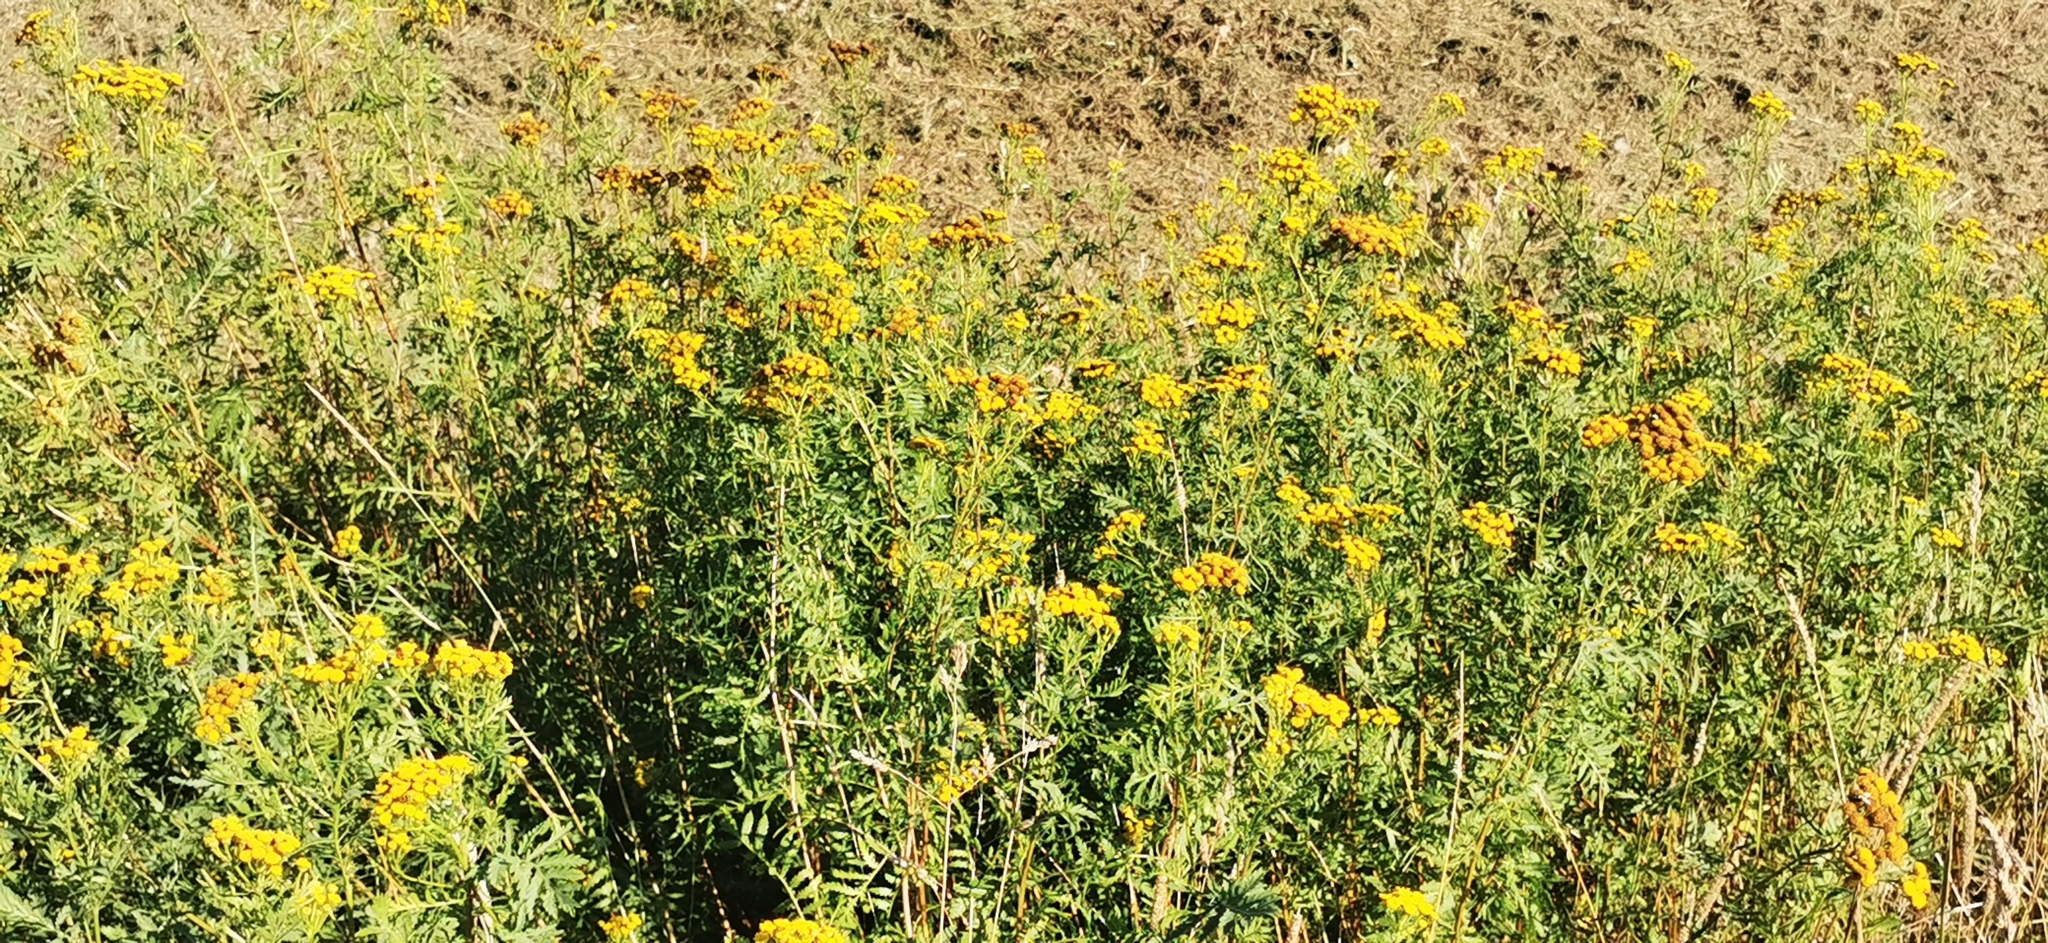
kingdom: Plantae
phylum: Tracheophyta
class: Magnoliopsida
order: Asterales
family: Asteraceae
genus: Tanacetum
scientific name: Tanacetum vulgare
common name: Common tansy
